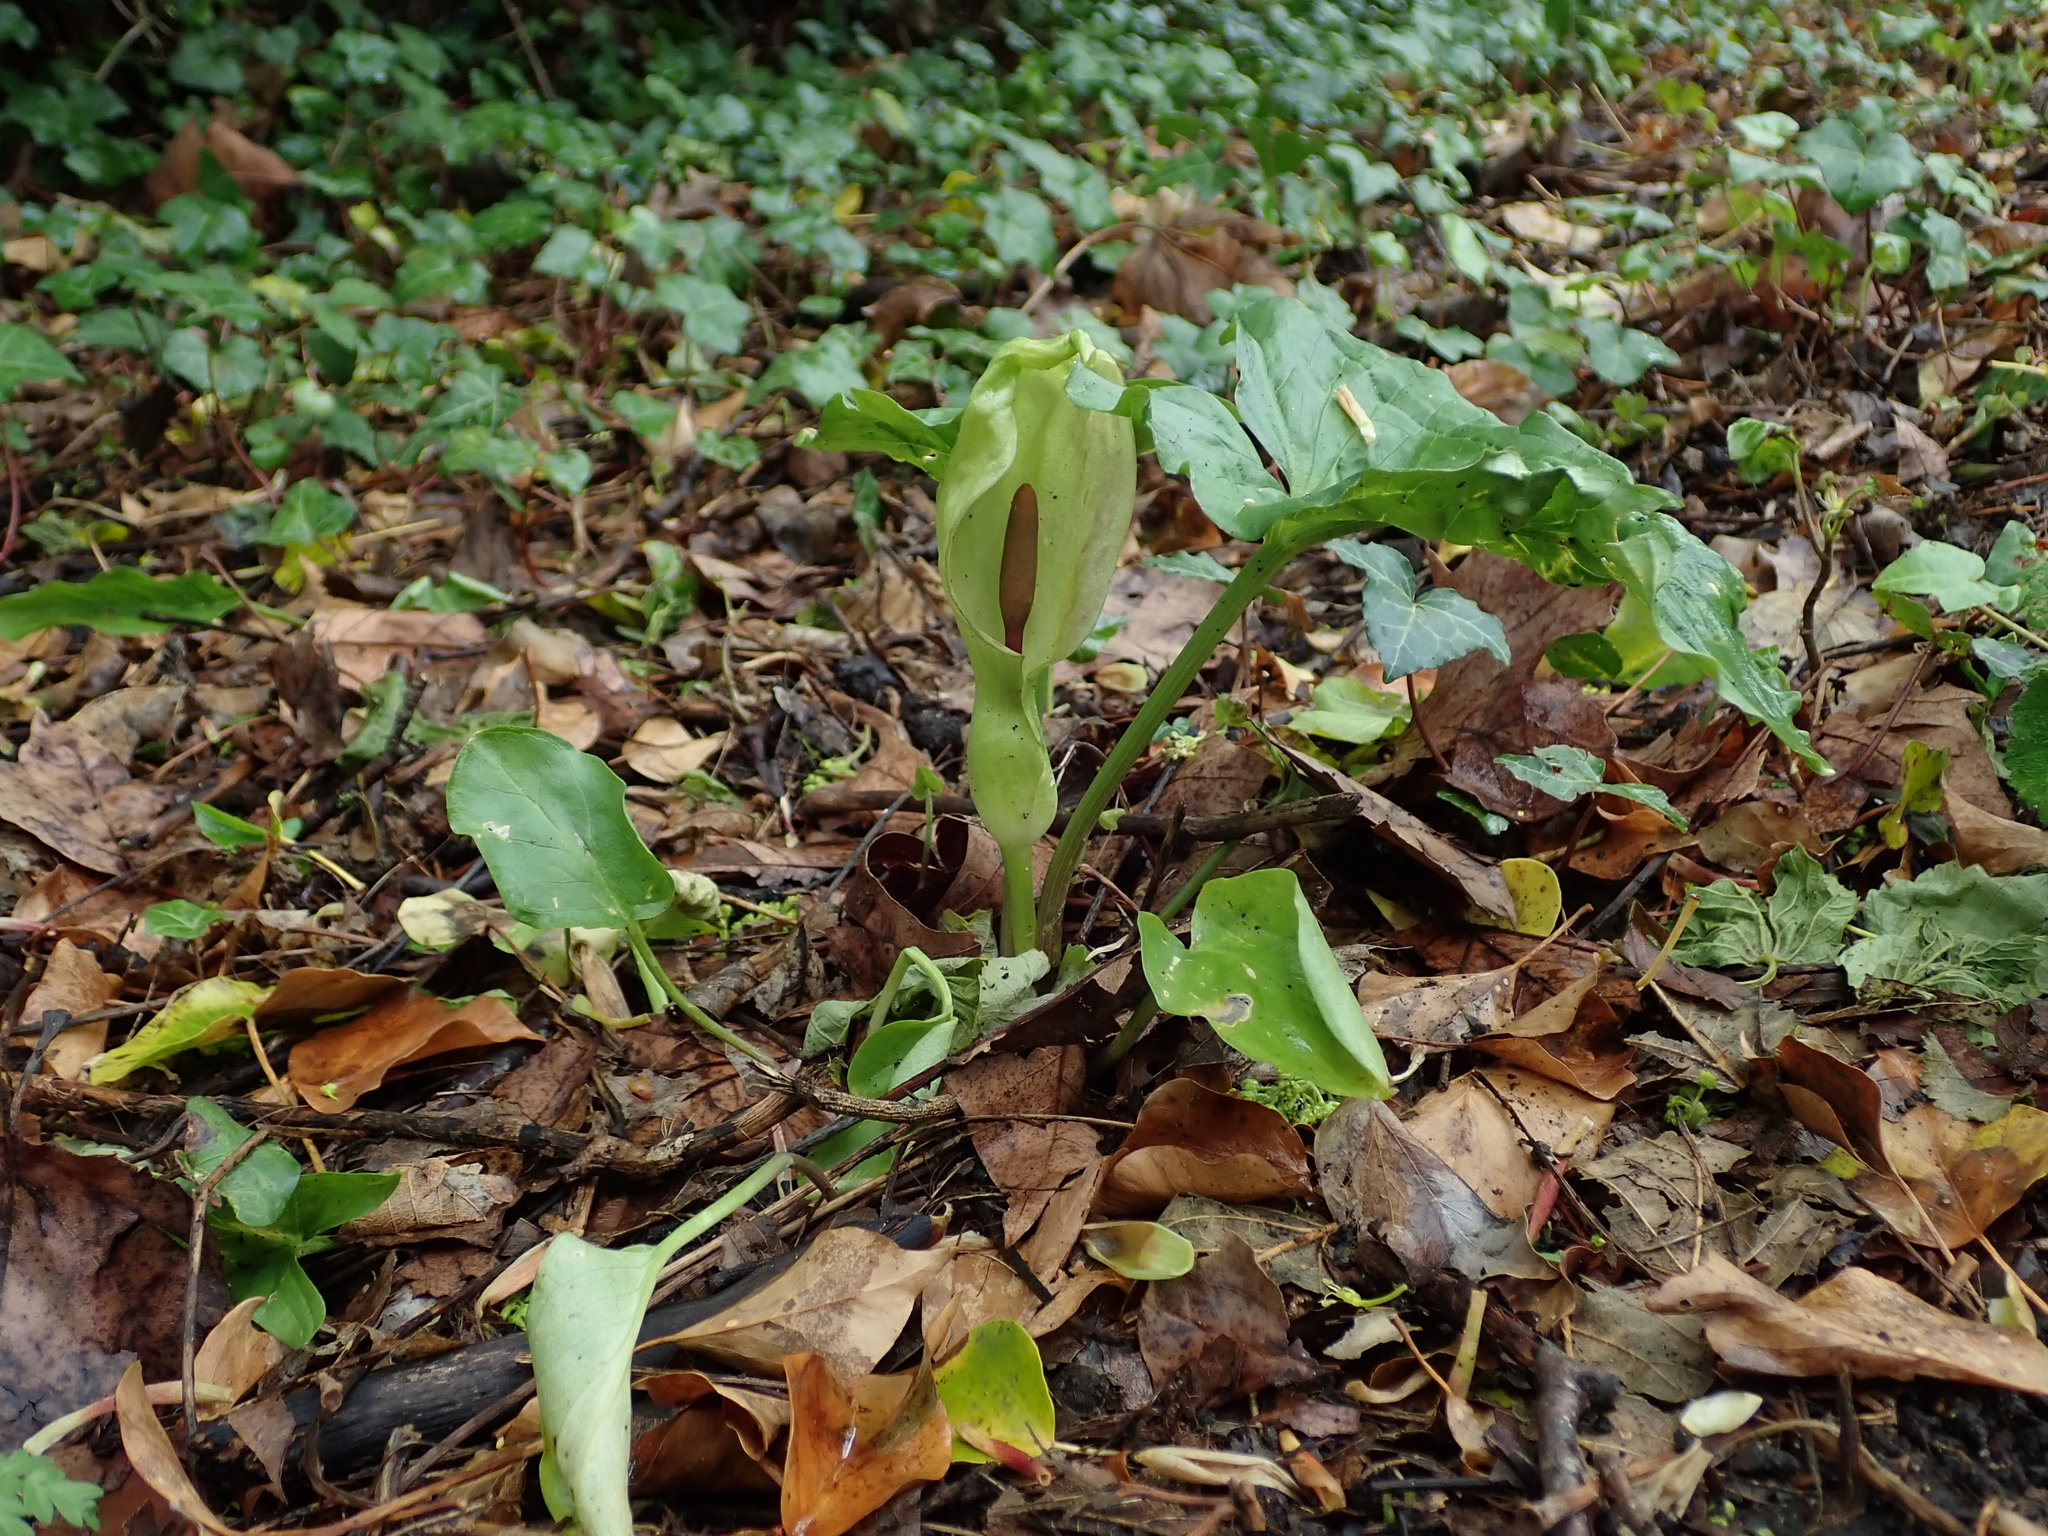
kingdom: Plantae
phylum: Tracheophyta
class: Liliopsida
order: Alismatales
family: Araceae
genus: Arum
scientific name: Arum maculatum
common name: Lords-and-ladies
